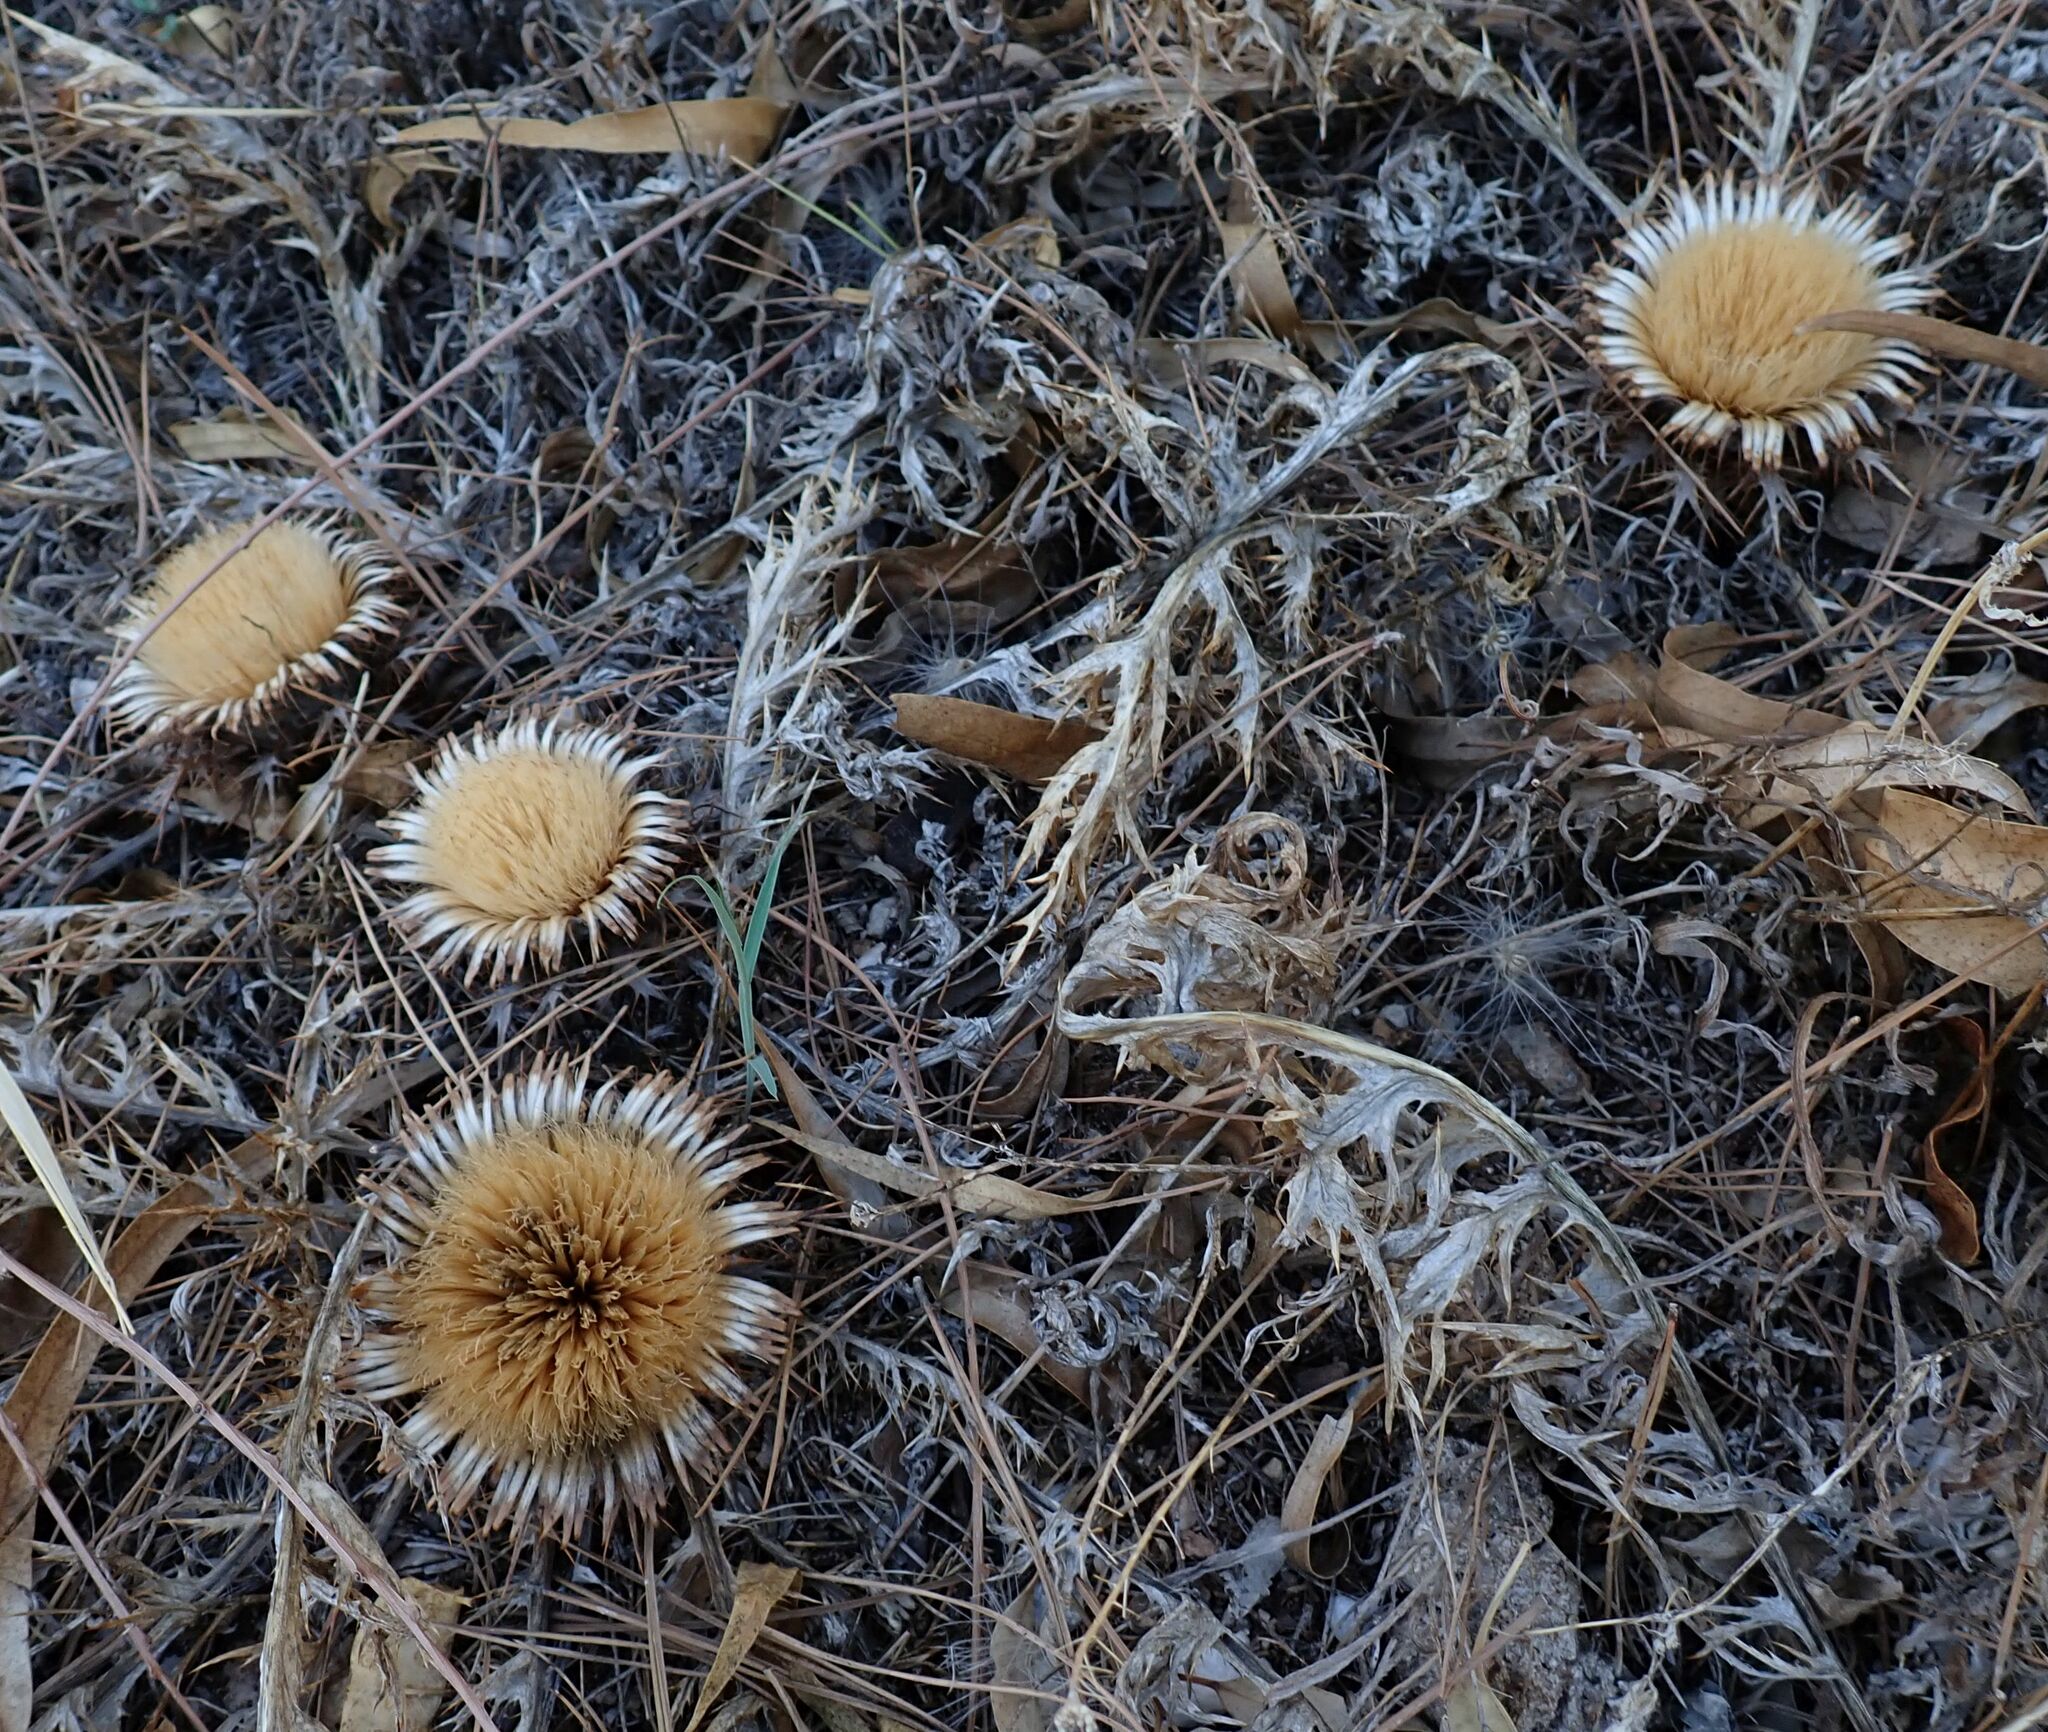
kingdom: Plantae
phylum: Tracheophyta
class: Magnoliopsida
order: Asterales
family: Asteraceae
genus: Chamaeleon
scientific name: Chamaeleon gummifer
